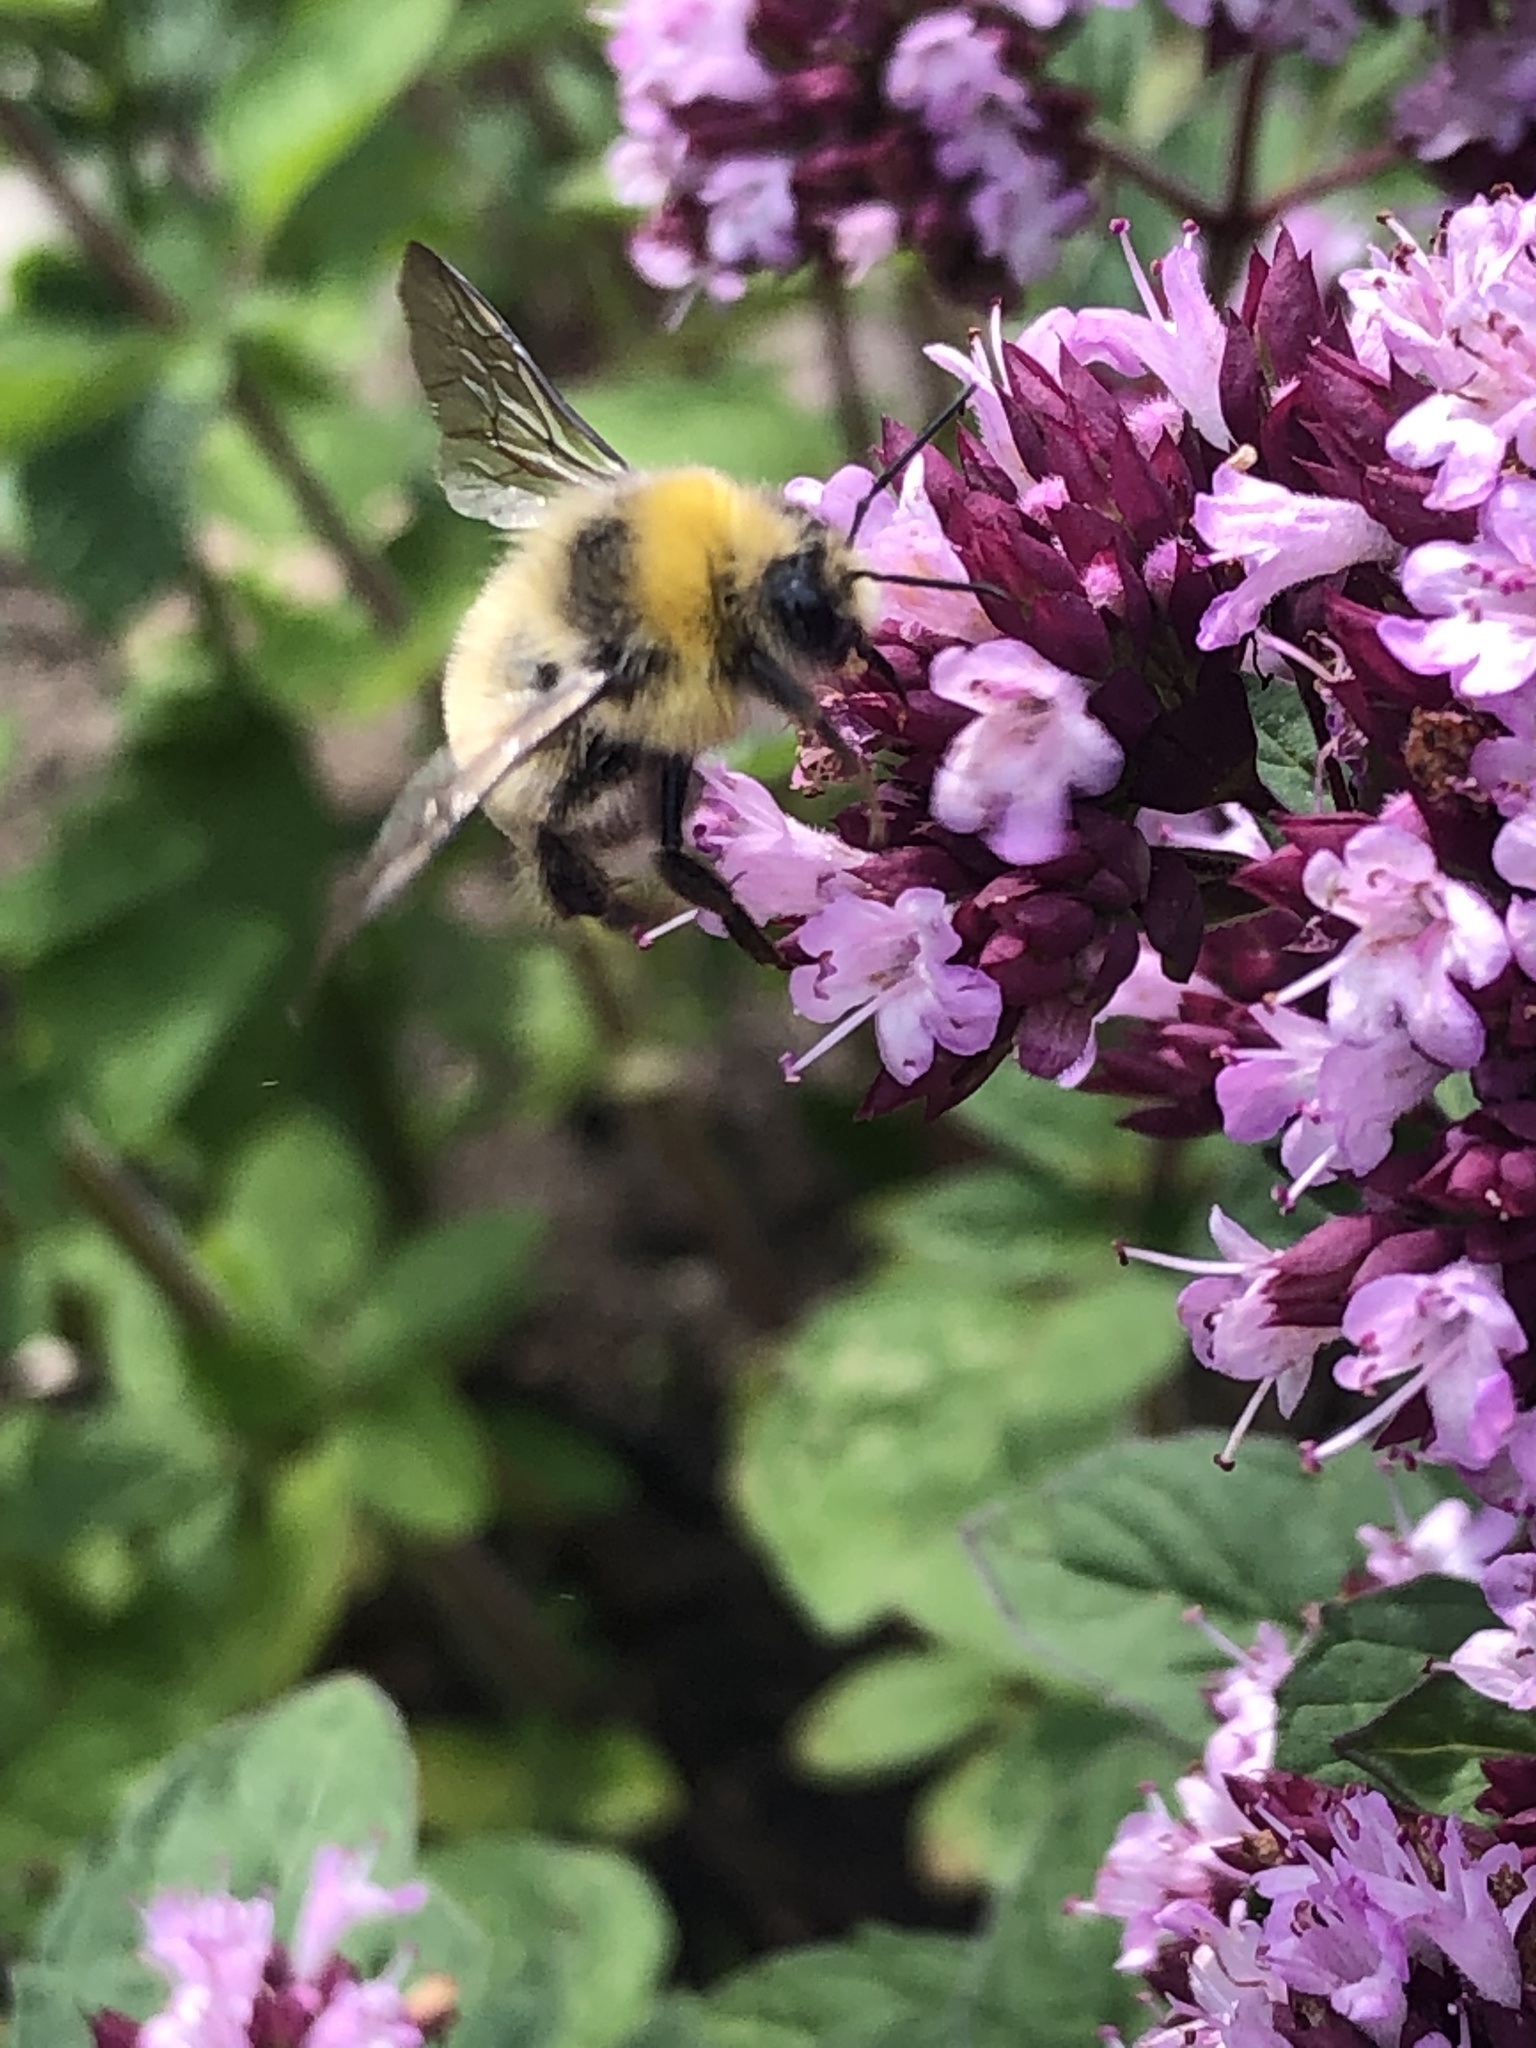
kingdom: Animalia
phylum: Arthropoda
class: Insecta
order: Hymenoptera
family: Apidae
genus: Bombus
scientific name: Bombus lucorum
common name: White-tailed bumblebee
